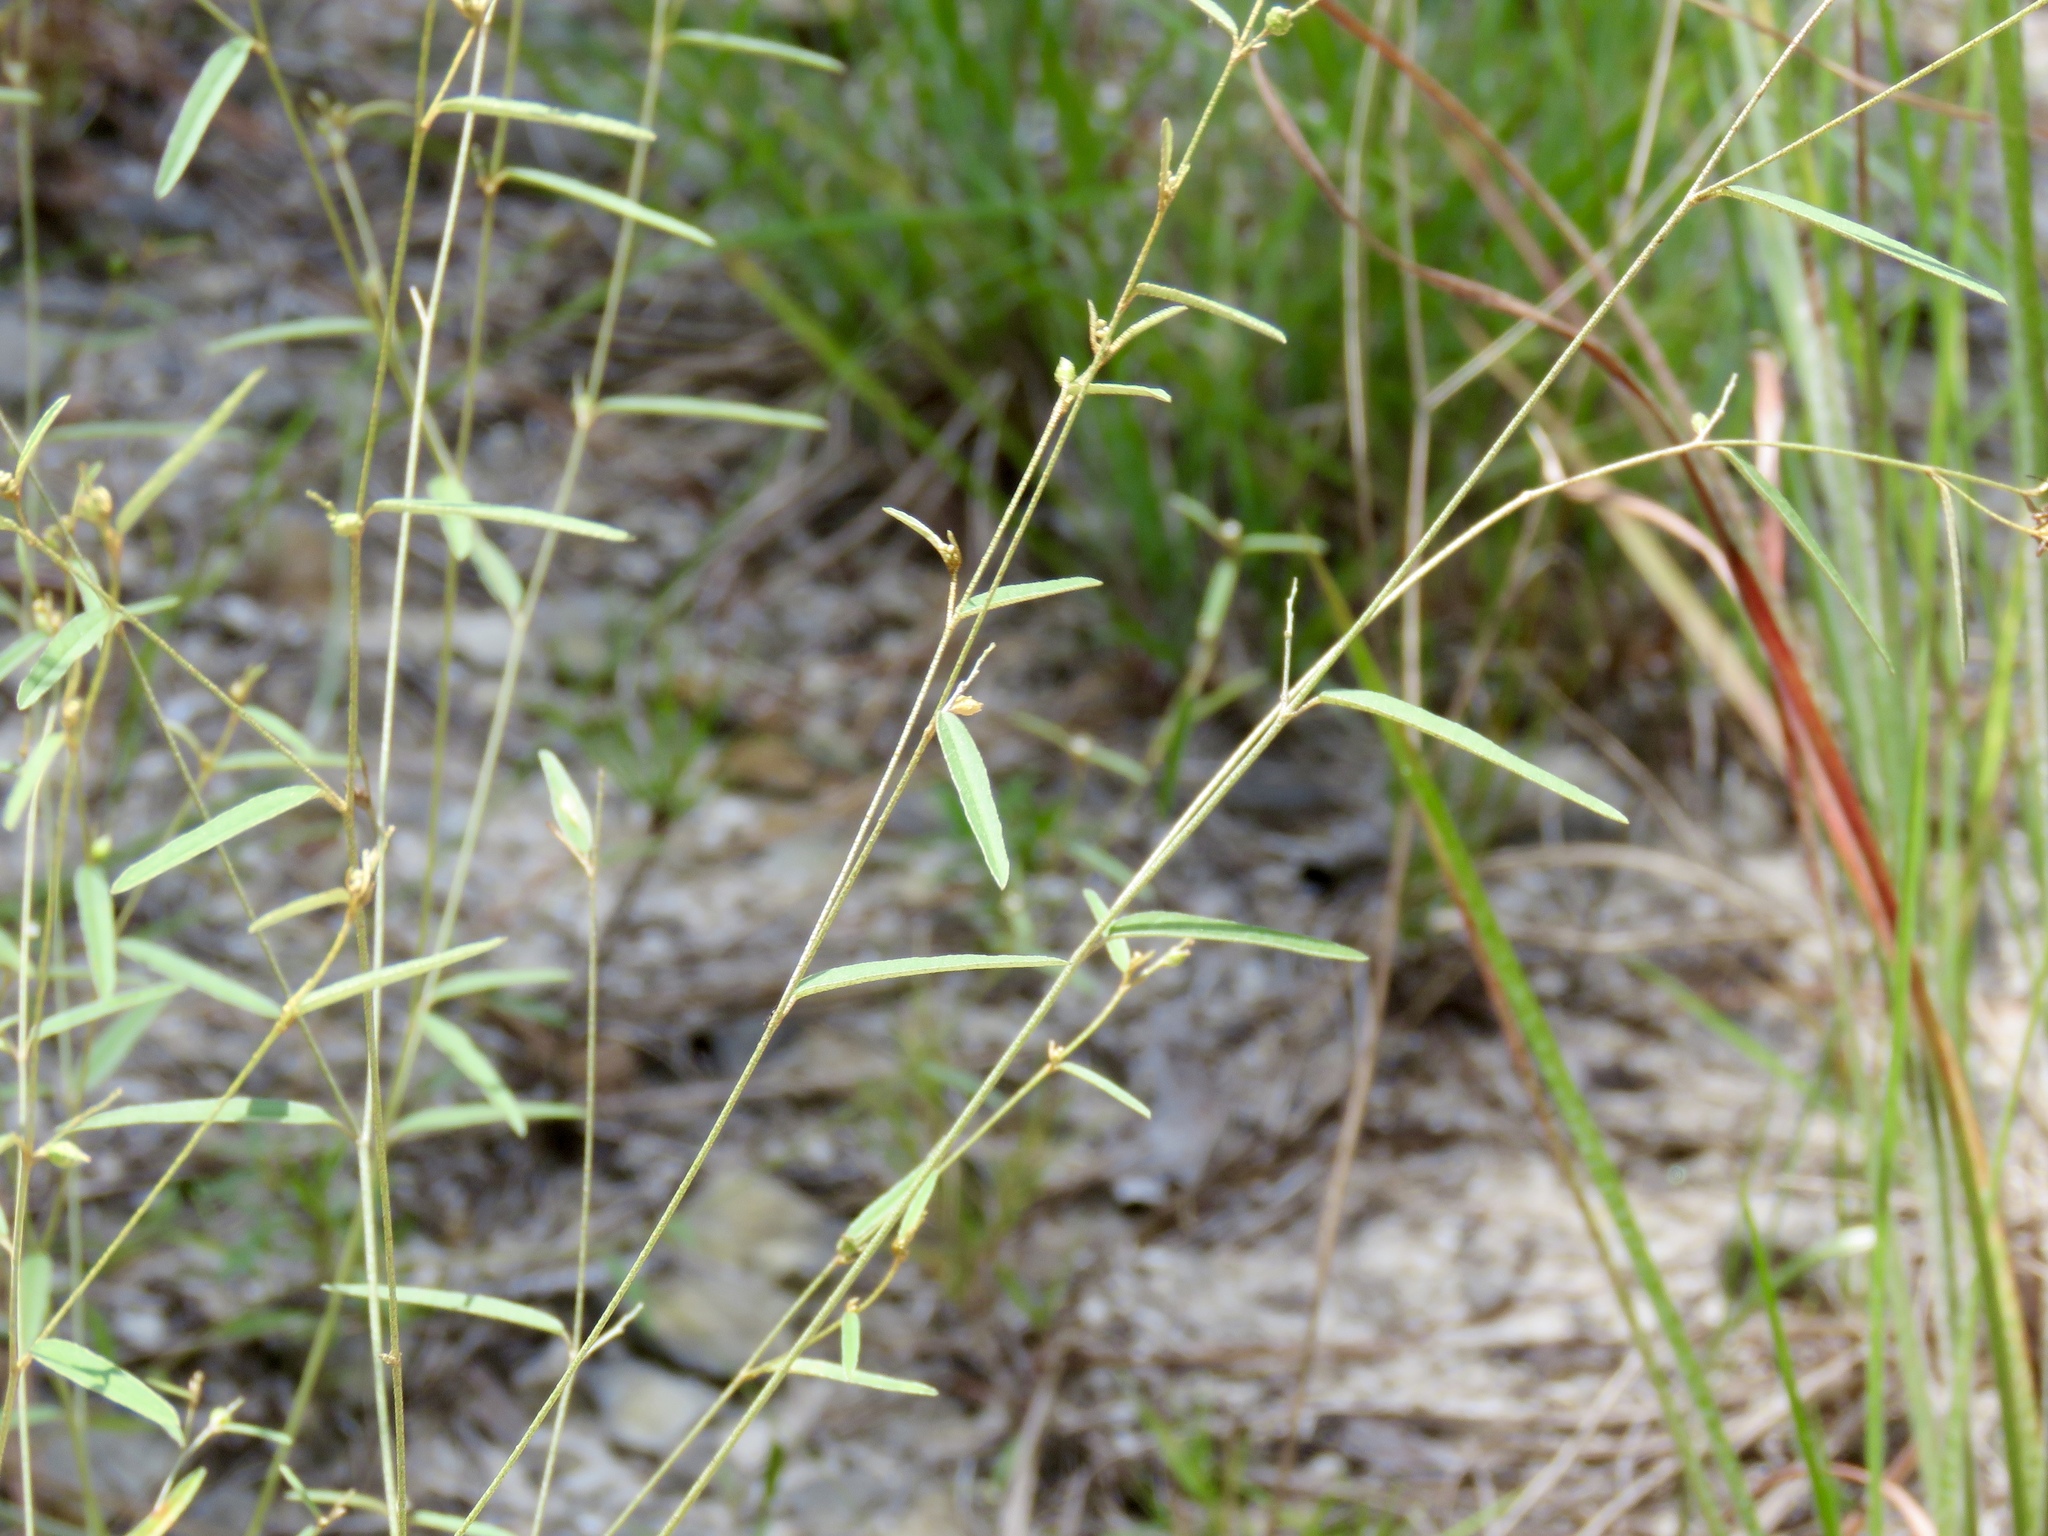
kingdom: Plantae
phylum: Tracheophyta
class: Magnoliopsida
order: Malpighiales
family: Euphorbiaceae
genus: Croton
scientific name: Croton michauxii
